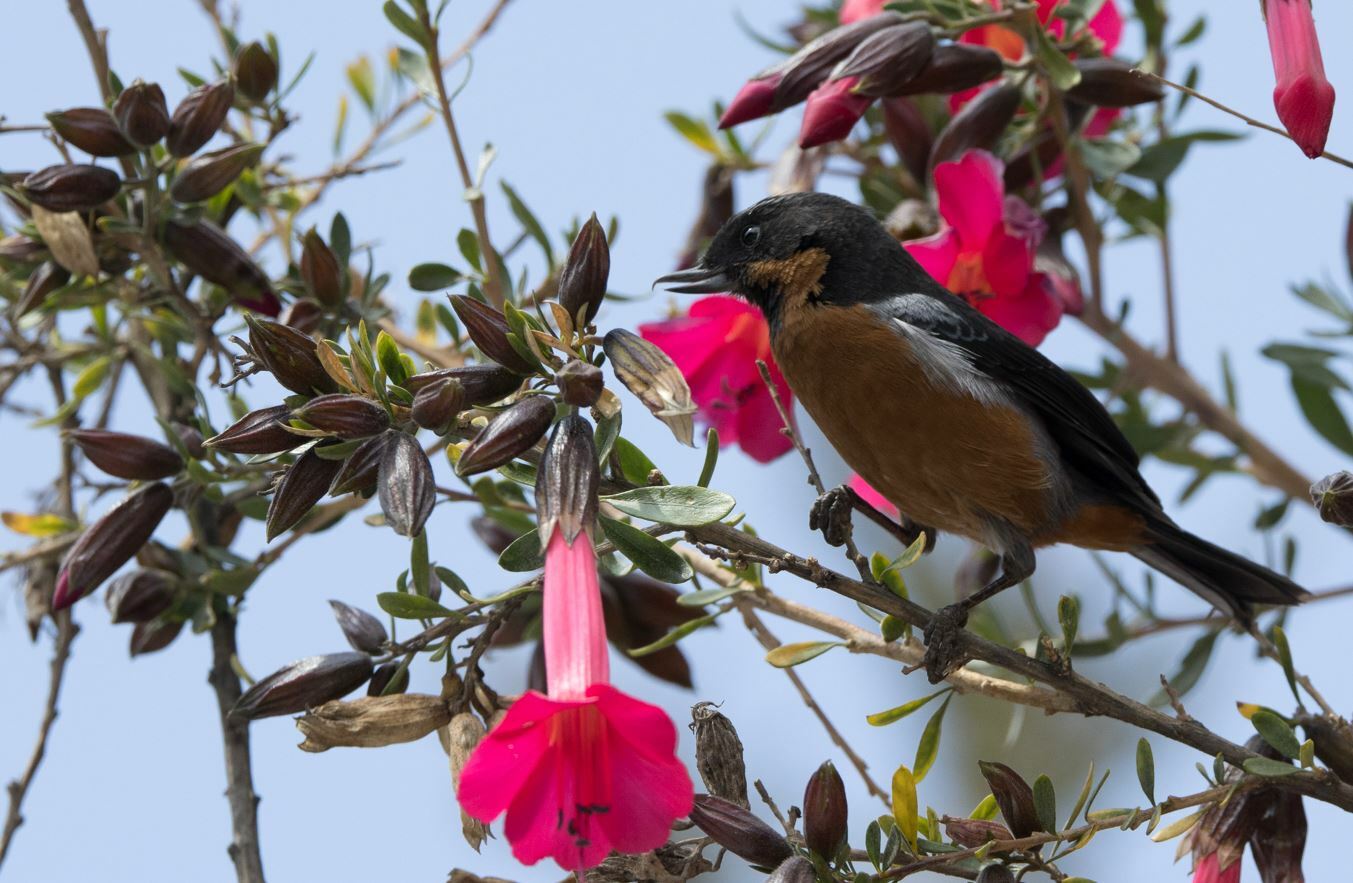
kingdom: Animalia
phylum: Chordata
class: Aves
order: Passeriformes
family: Thraupidae
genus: Diglossa
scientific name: Diglossa brunneiventris
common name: Black-throated flowerpiercer
